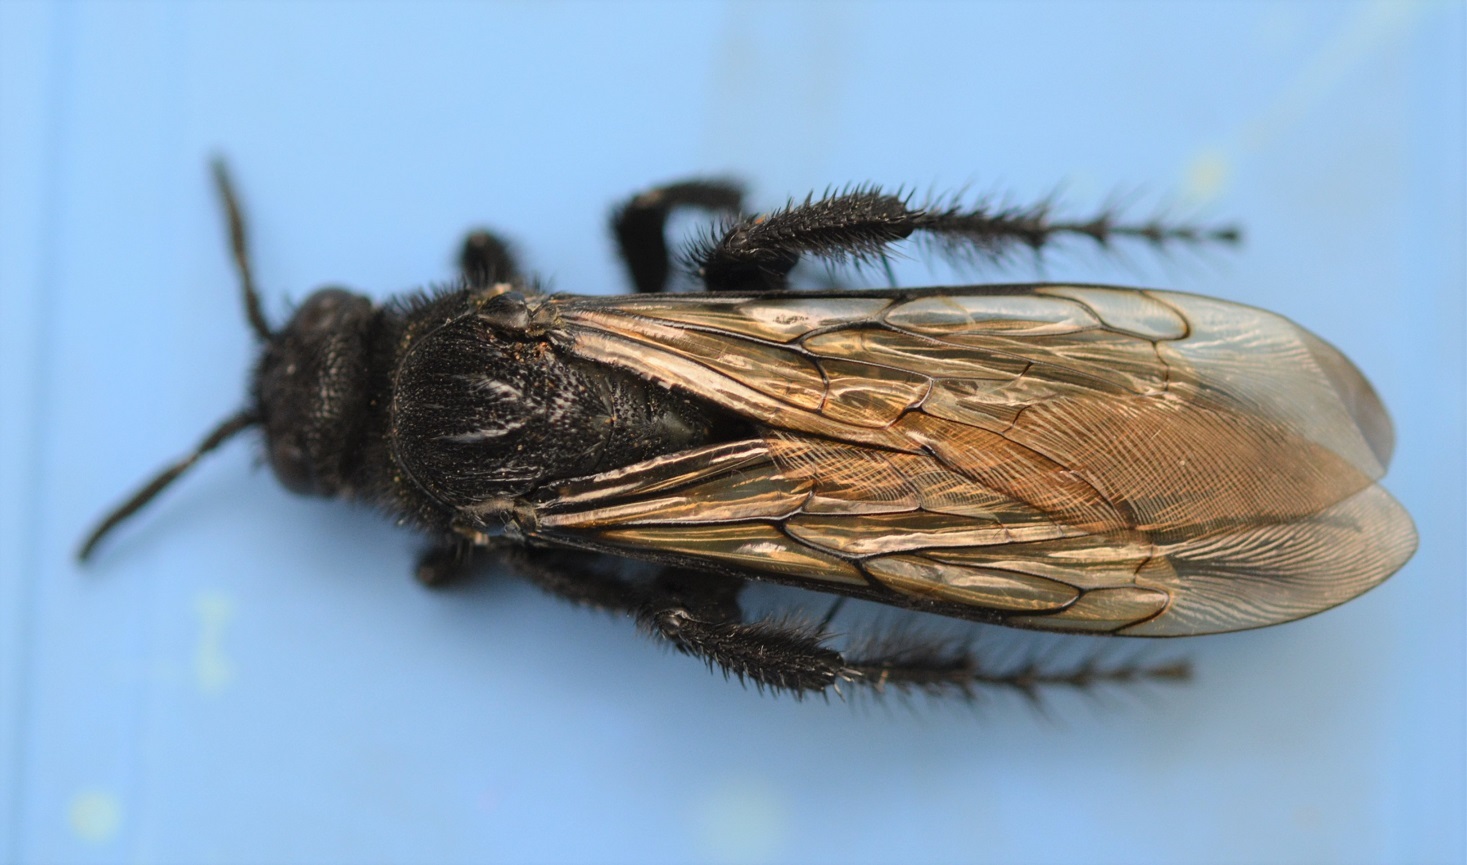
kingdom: Animalia
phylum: Arthropoda
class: Insecta
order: Hymenoptera
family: Scoliidae
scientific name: Scoliidae
